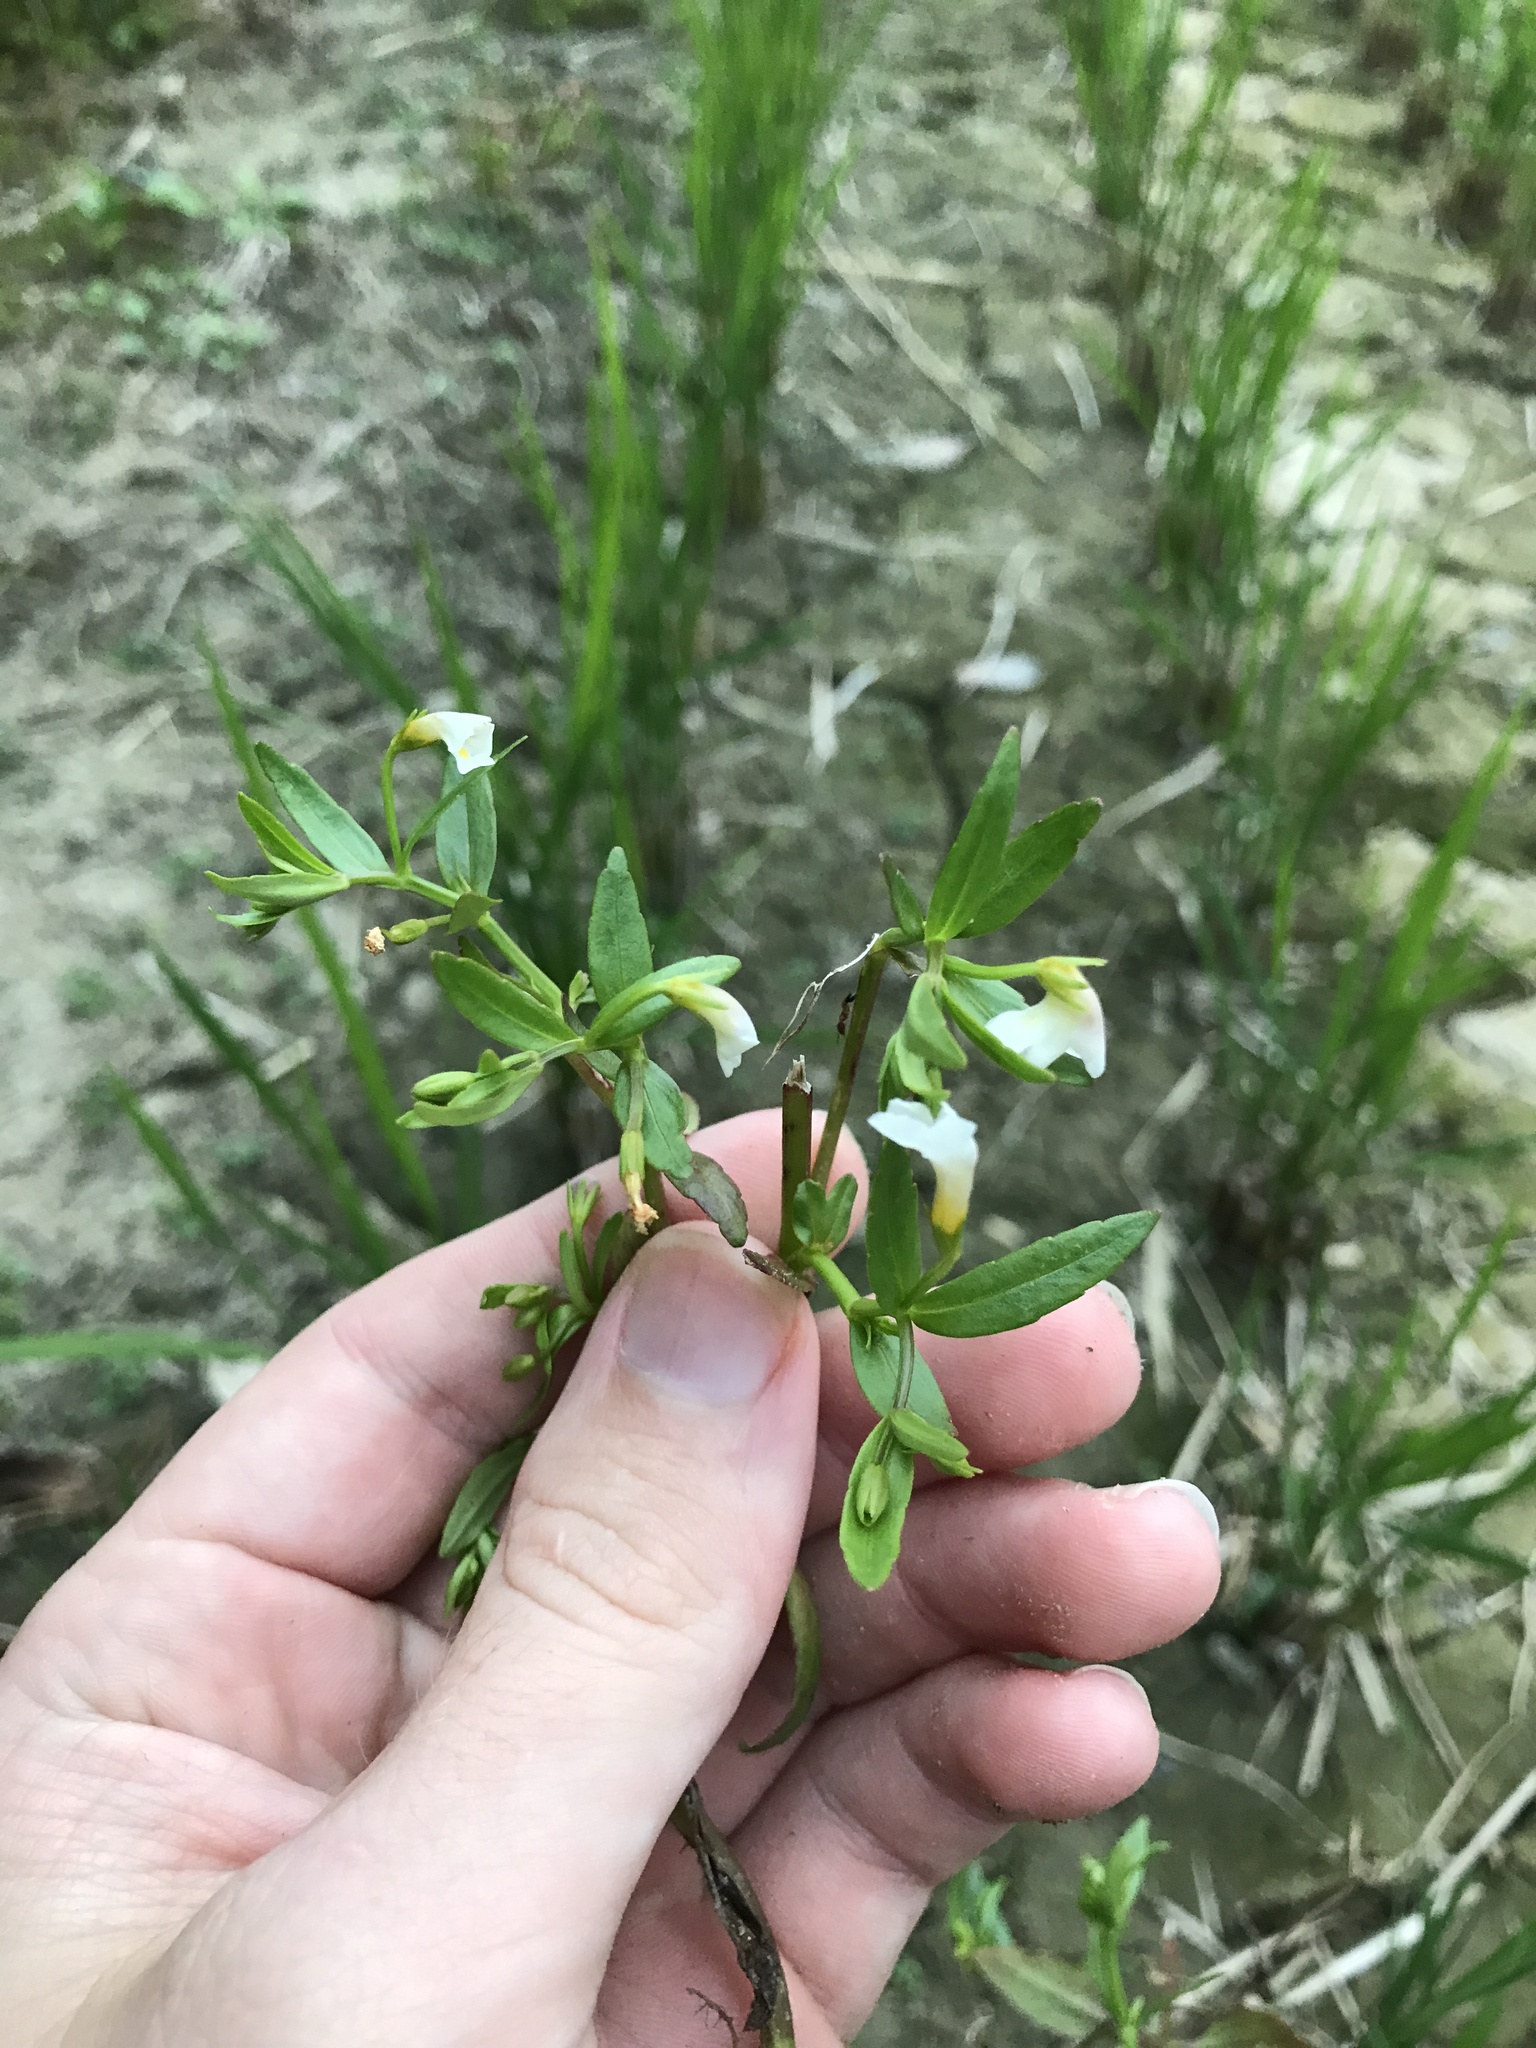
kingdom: Plantae
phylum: Tracheophyta
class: Magnoliopsida
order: Lamiales
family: Linderniaceae
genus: Vandellia
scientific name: Vandellia micrantha
